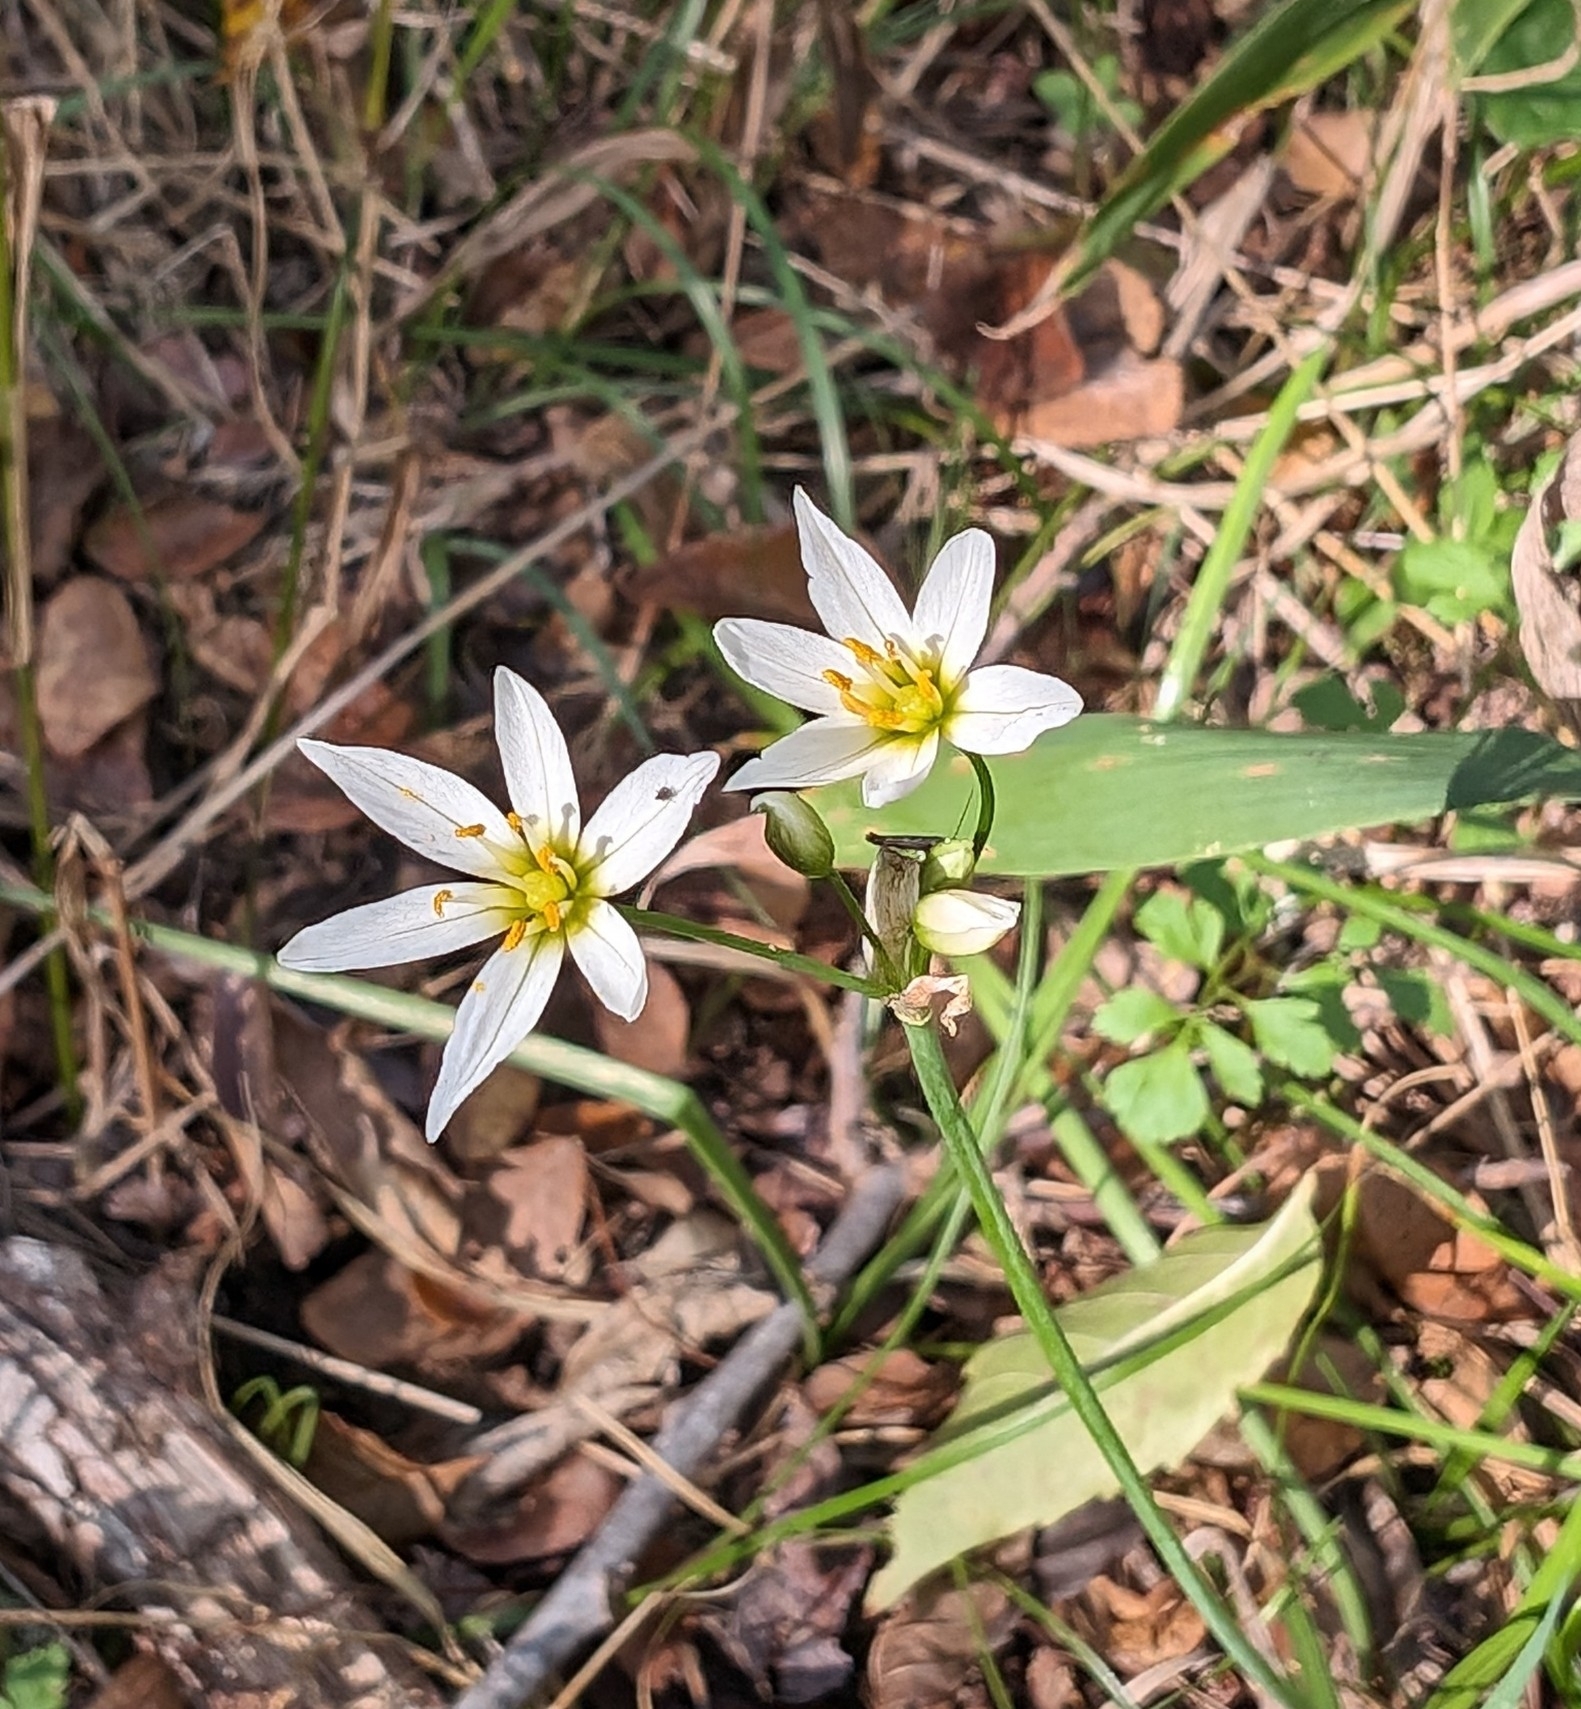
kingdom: Plantae
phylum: Tracheophyta
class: Liliopsida
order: Asparagales
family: Amaryllidaceae
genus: Nothoscordum
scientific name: Nothoscordum bivalve
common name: Crow-poison
